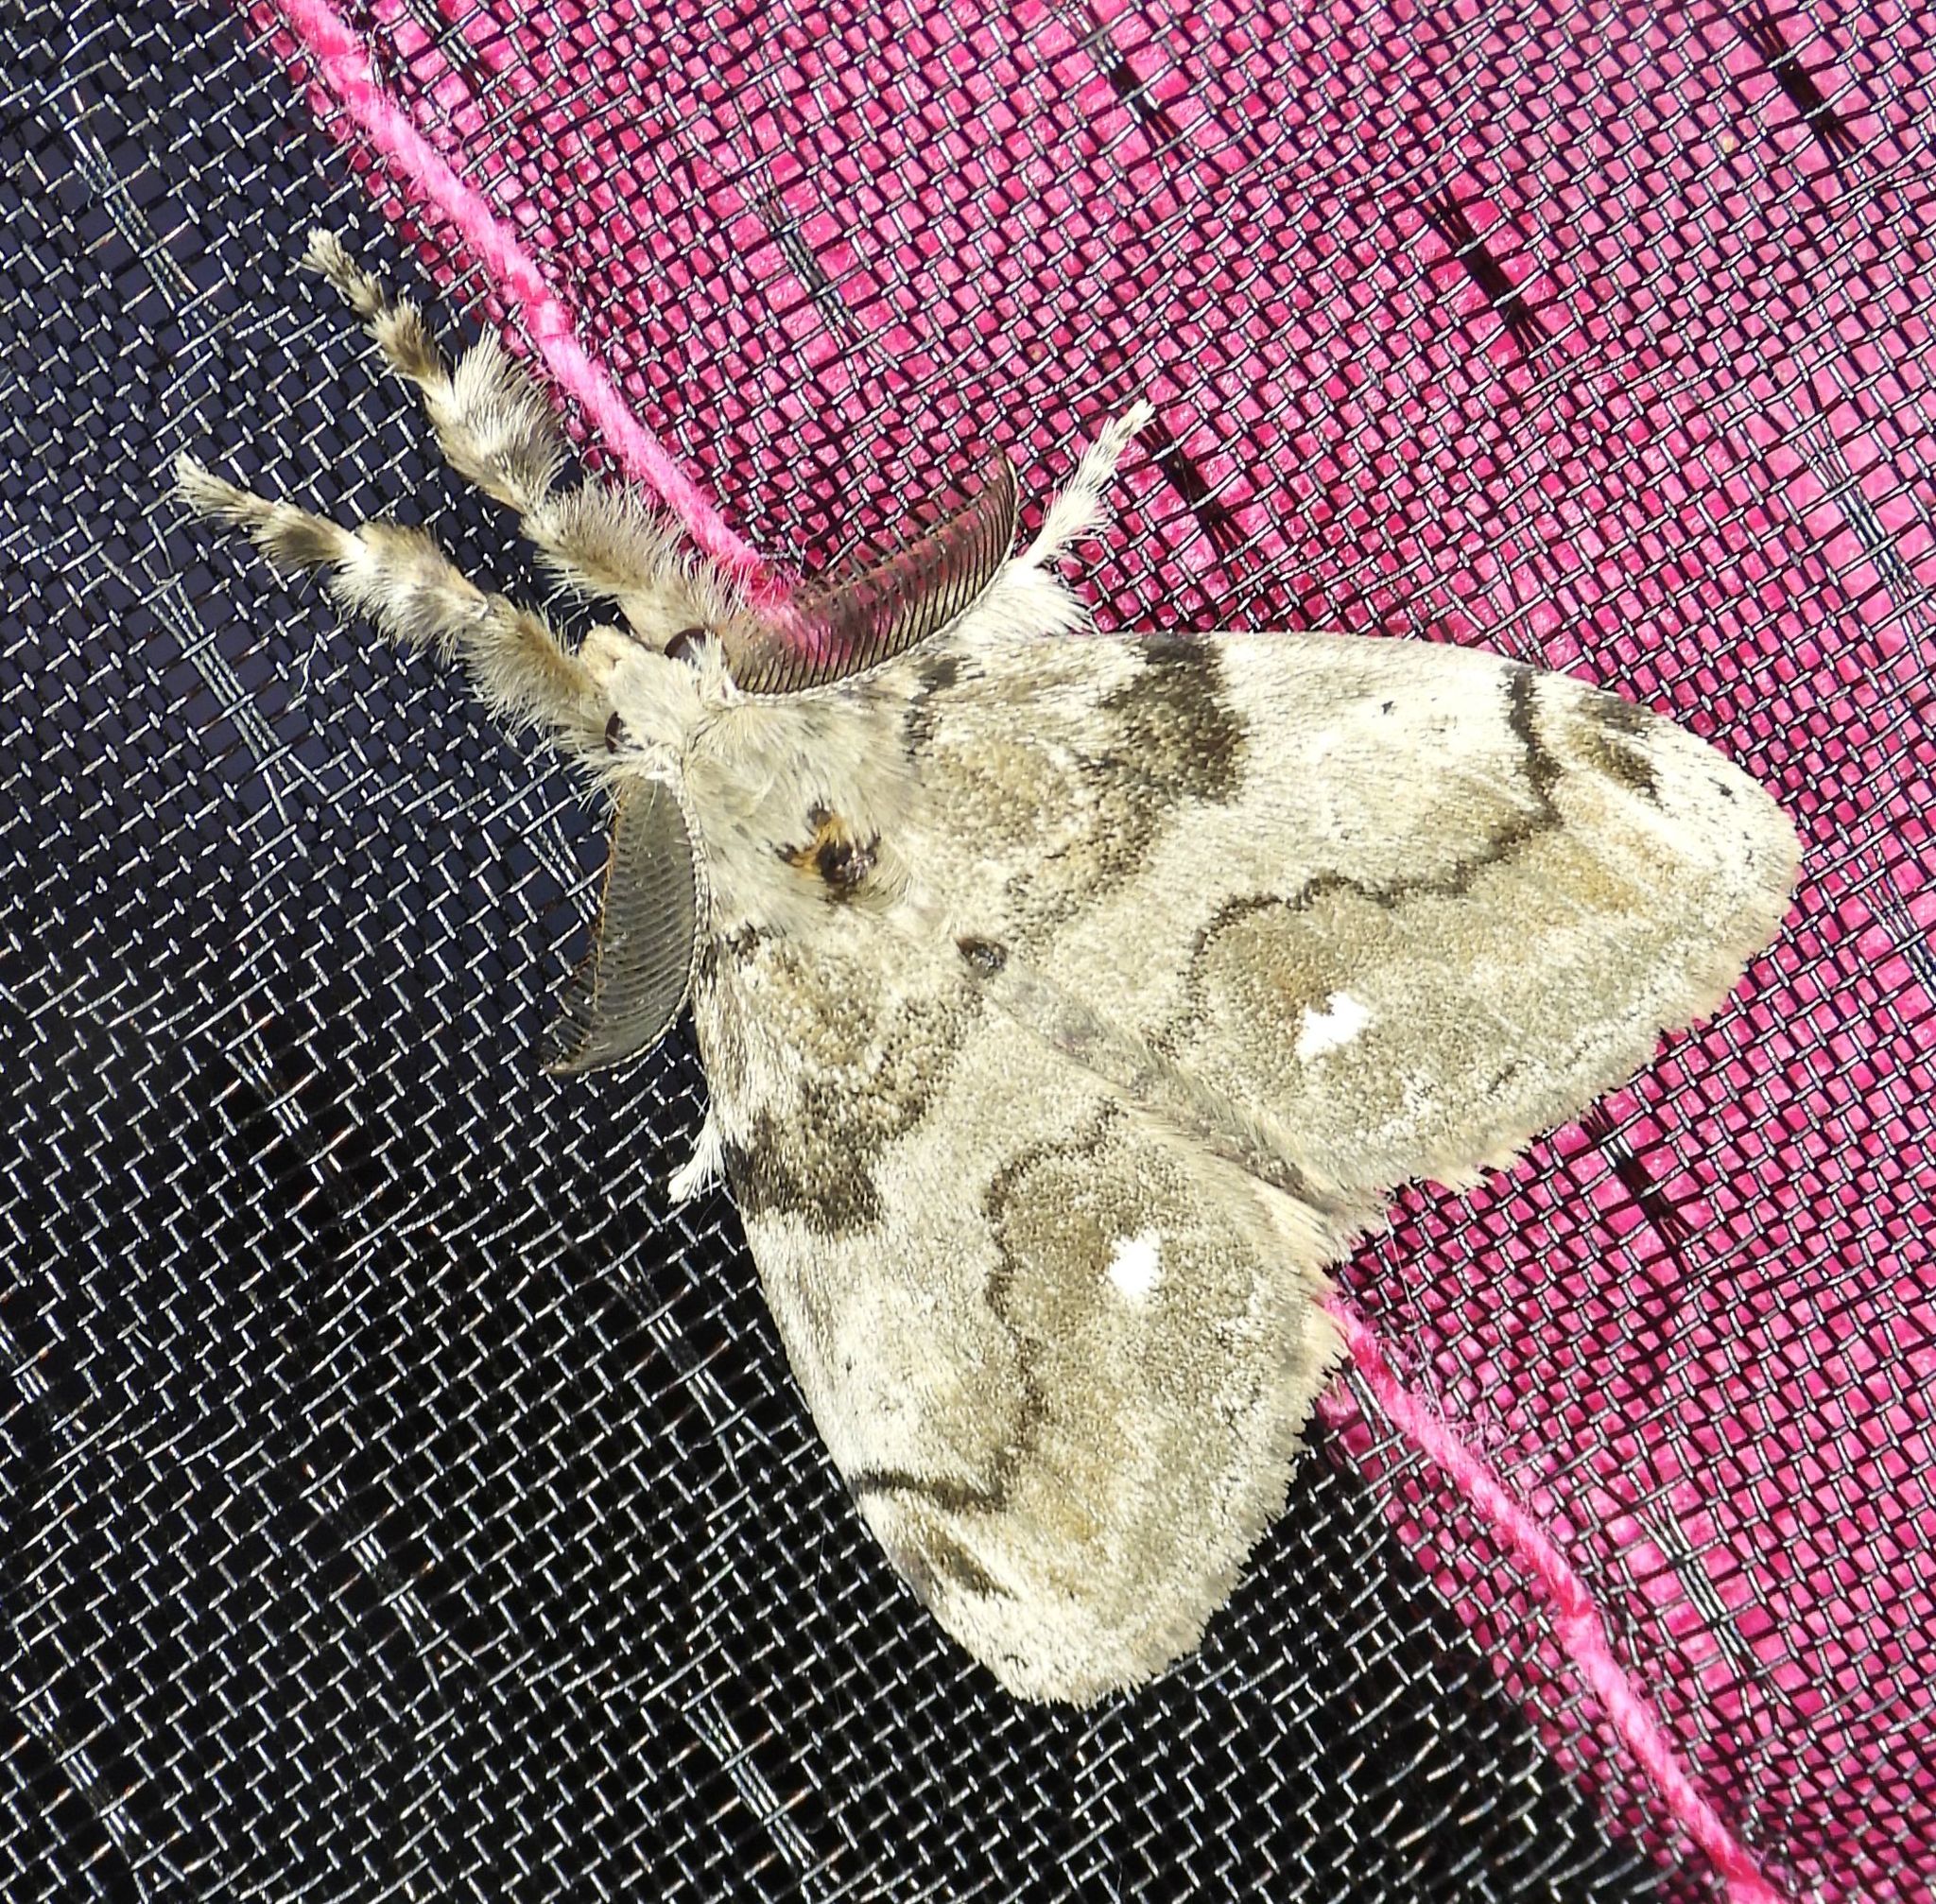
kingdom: Animalia
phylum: Arthropoda
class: Insecta
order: Lepidoptera
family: Erebidae
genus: Orgyia
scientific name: Orgyia leucostigma
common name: White-marked tussock moth
